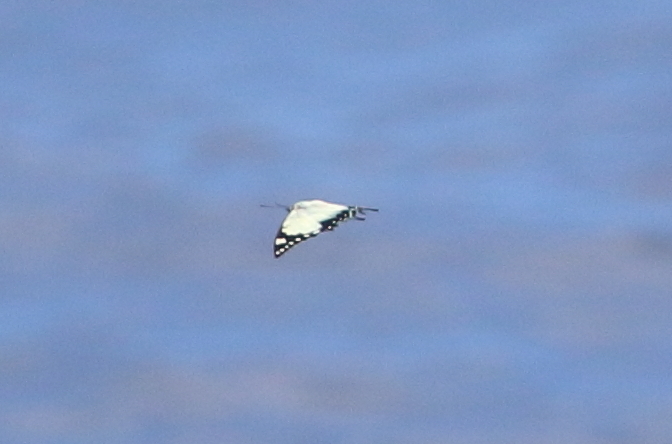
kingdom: Animalia
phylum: Arthropoda
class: Insecta
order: Lepidoptera
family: Nymphalidae
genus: Charaxes
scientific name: Charaxes
